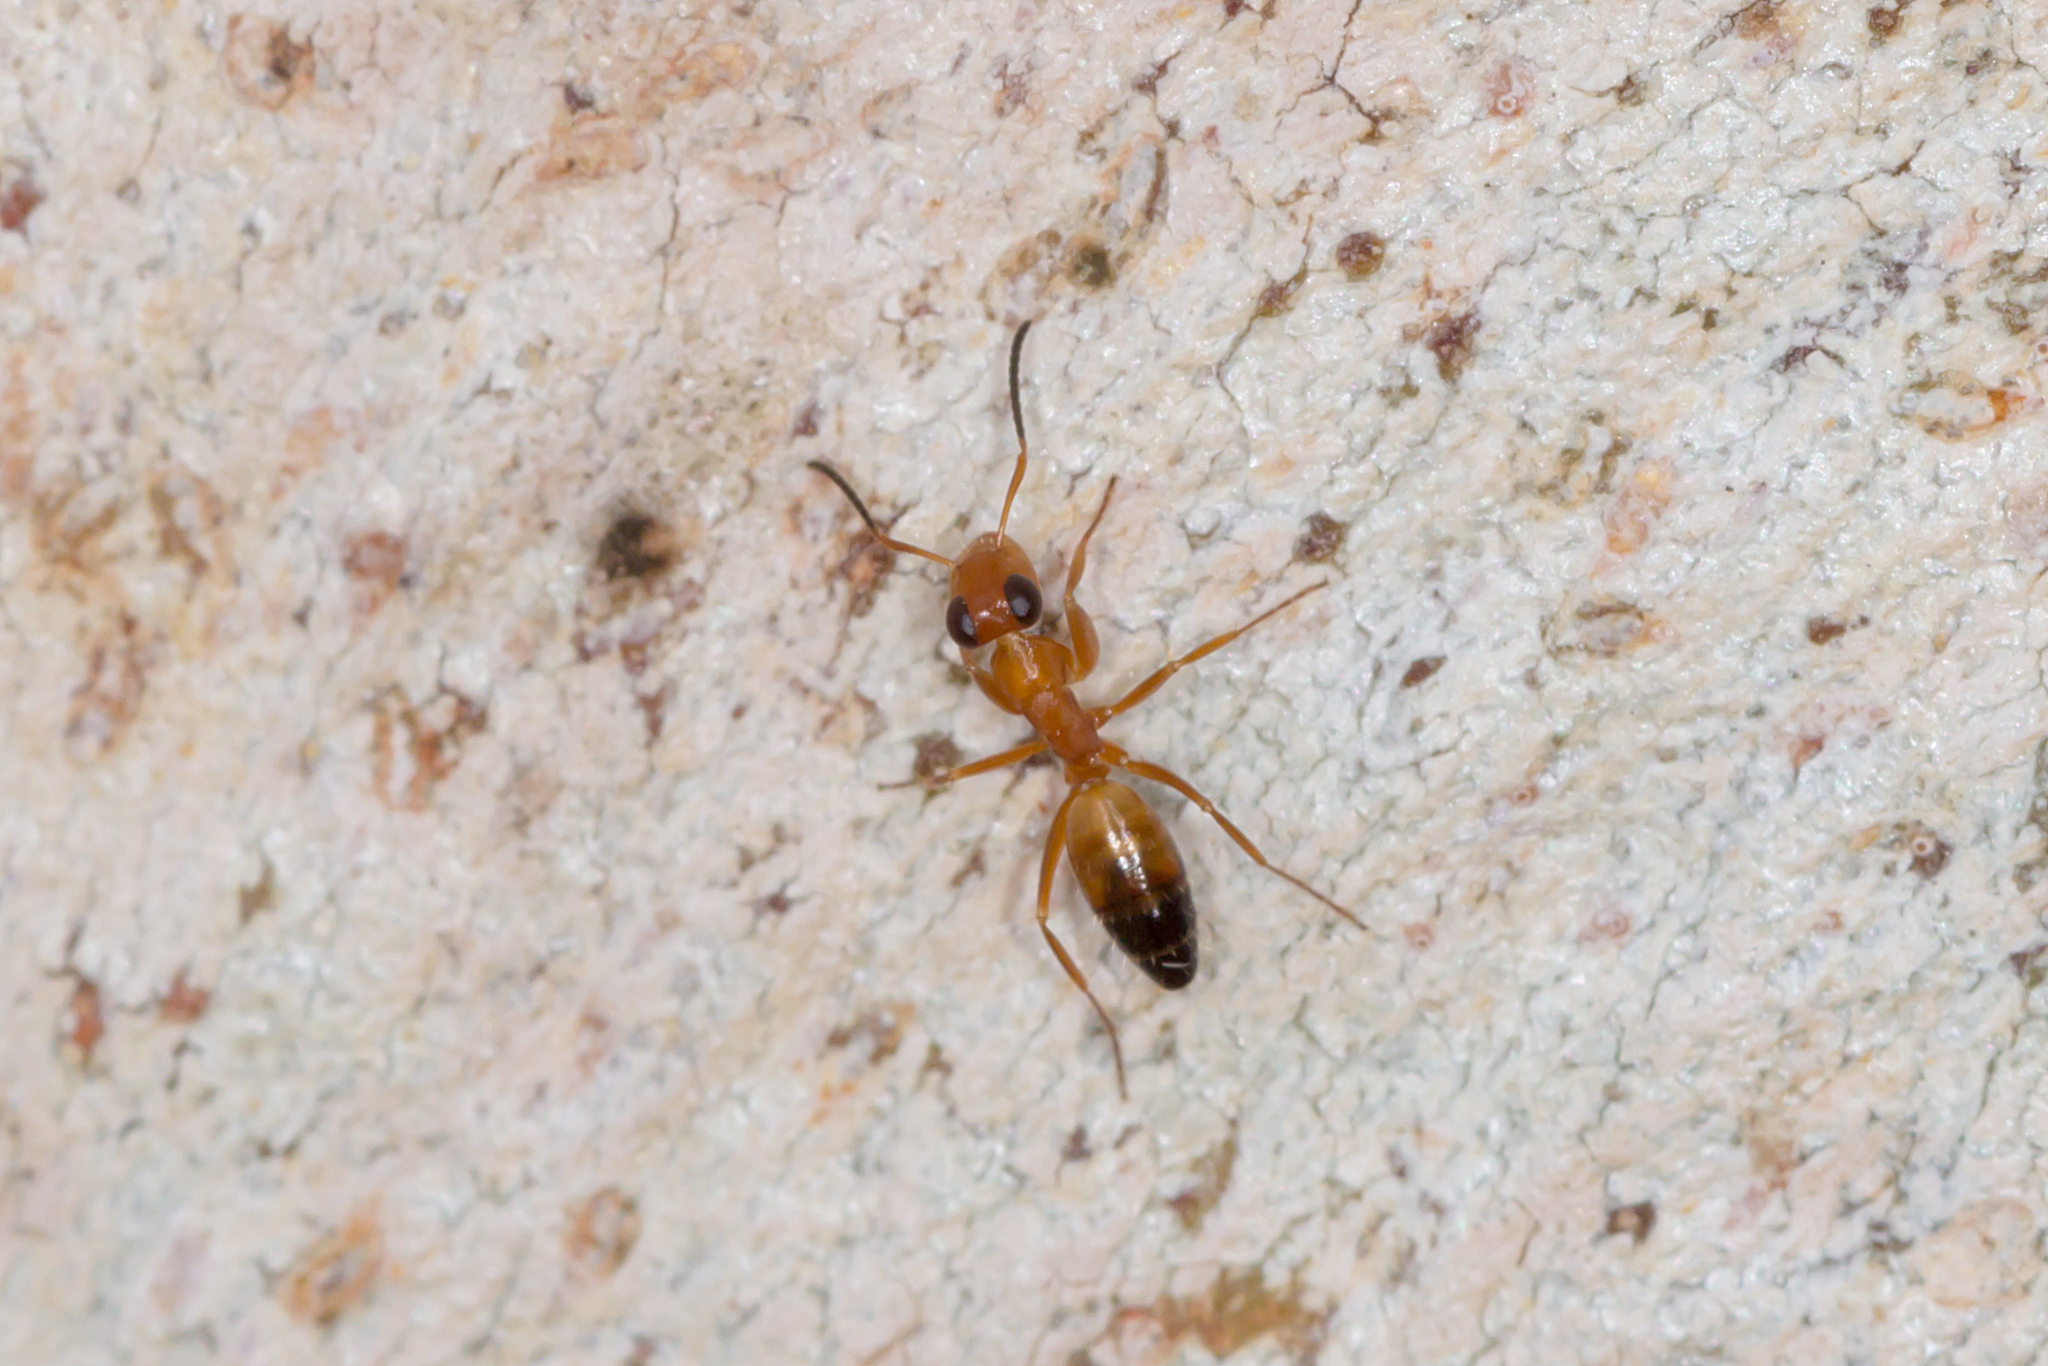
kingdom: Animalia
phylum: Arthropoda
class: Insecta
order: Hymenoptera
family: Formicidae
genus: Opisthopsis
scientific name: Opisthopsis haddoni
